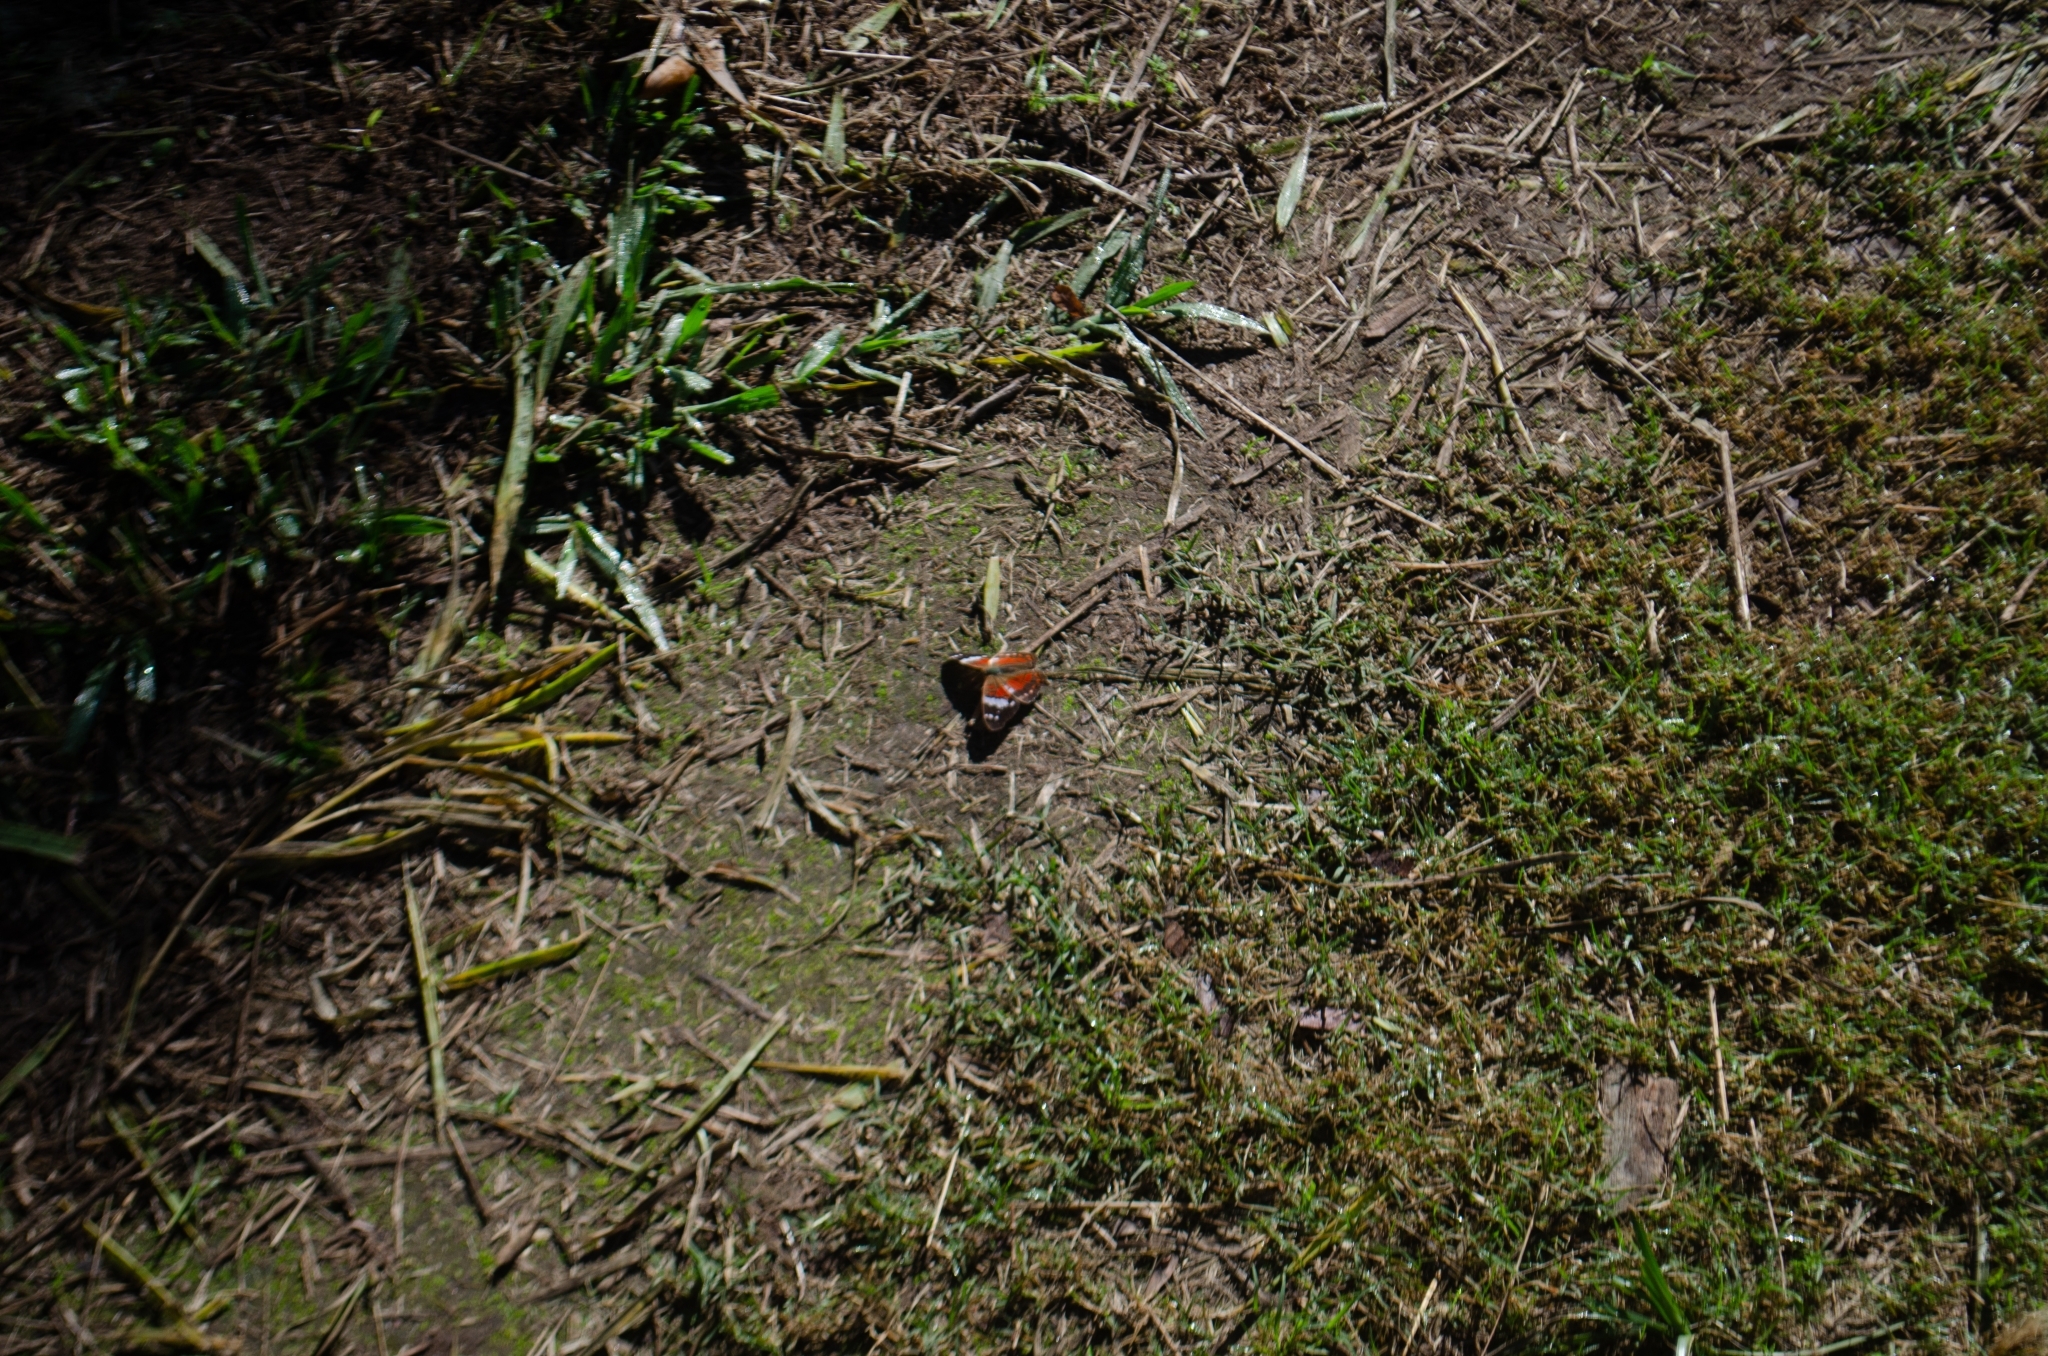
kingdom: Animalia
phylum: Arthropoda
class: Insecta
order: Lepidoptera
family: Nymphalidae
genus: Anartia
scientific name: Anartia amathea
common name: Red peacock
